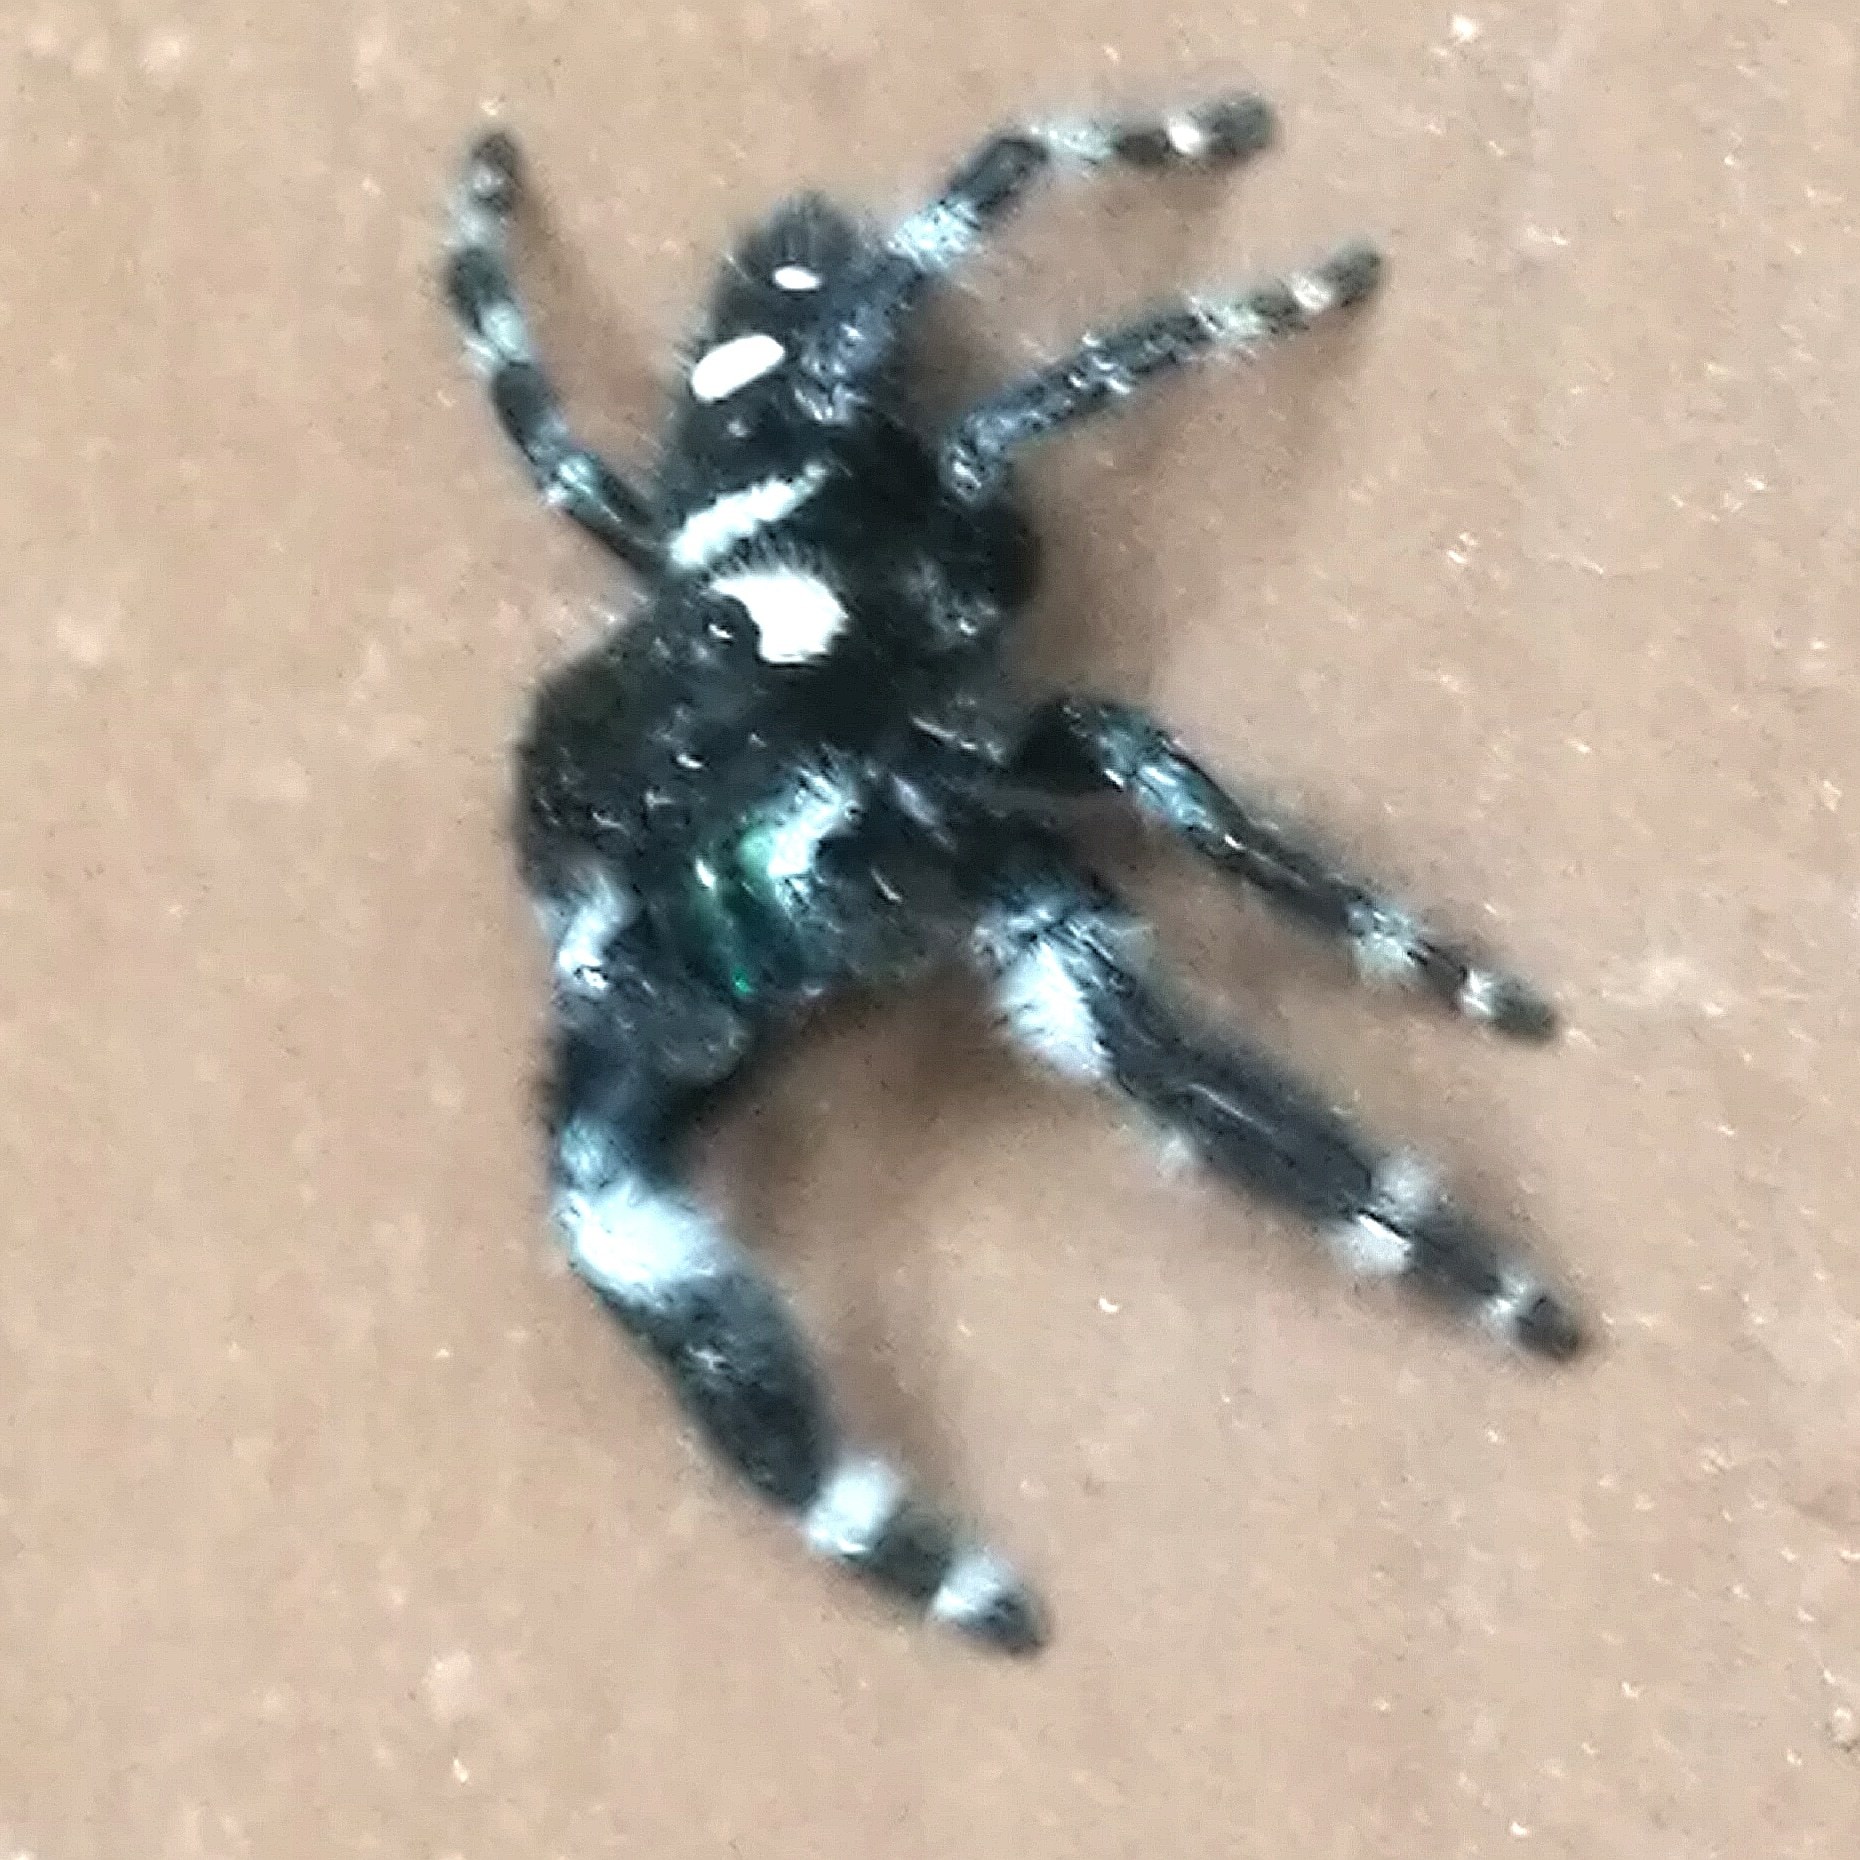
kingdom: Animalia
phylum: Arthropoda
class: Arachnida
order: Araneae
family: Salticidae
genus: Phidippus
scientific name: Phidippus audax
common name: Bold jumper
